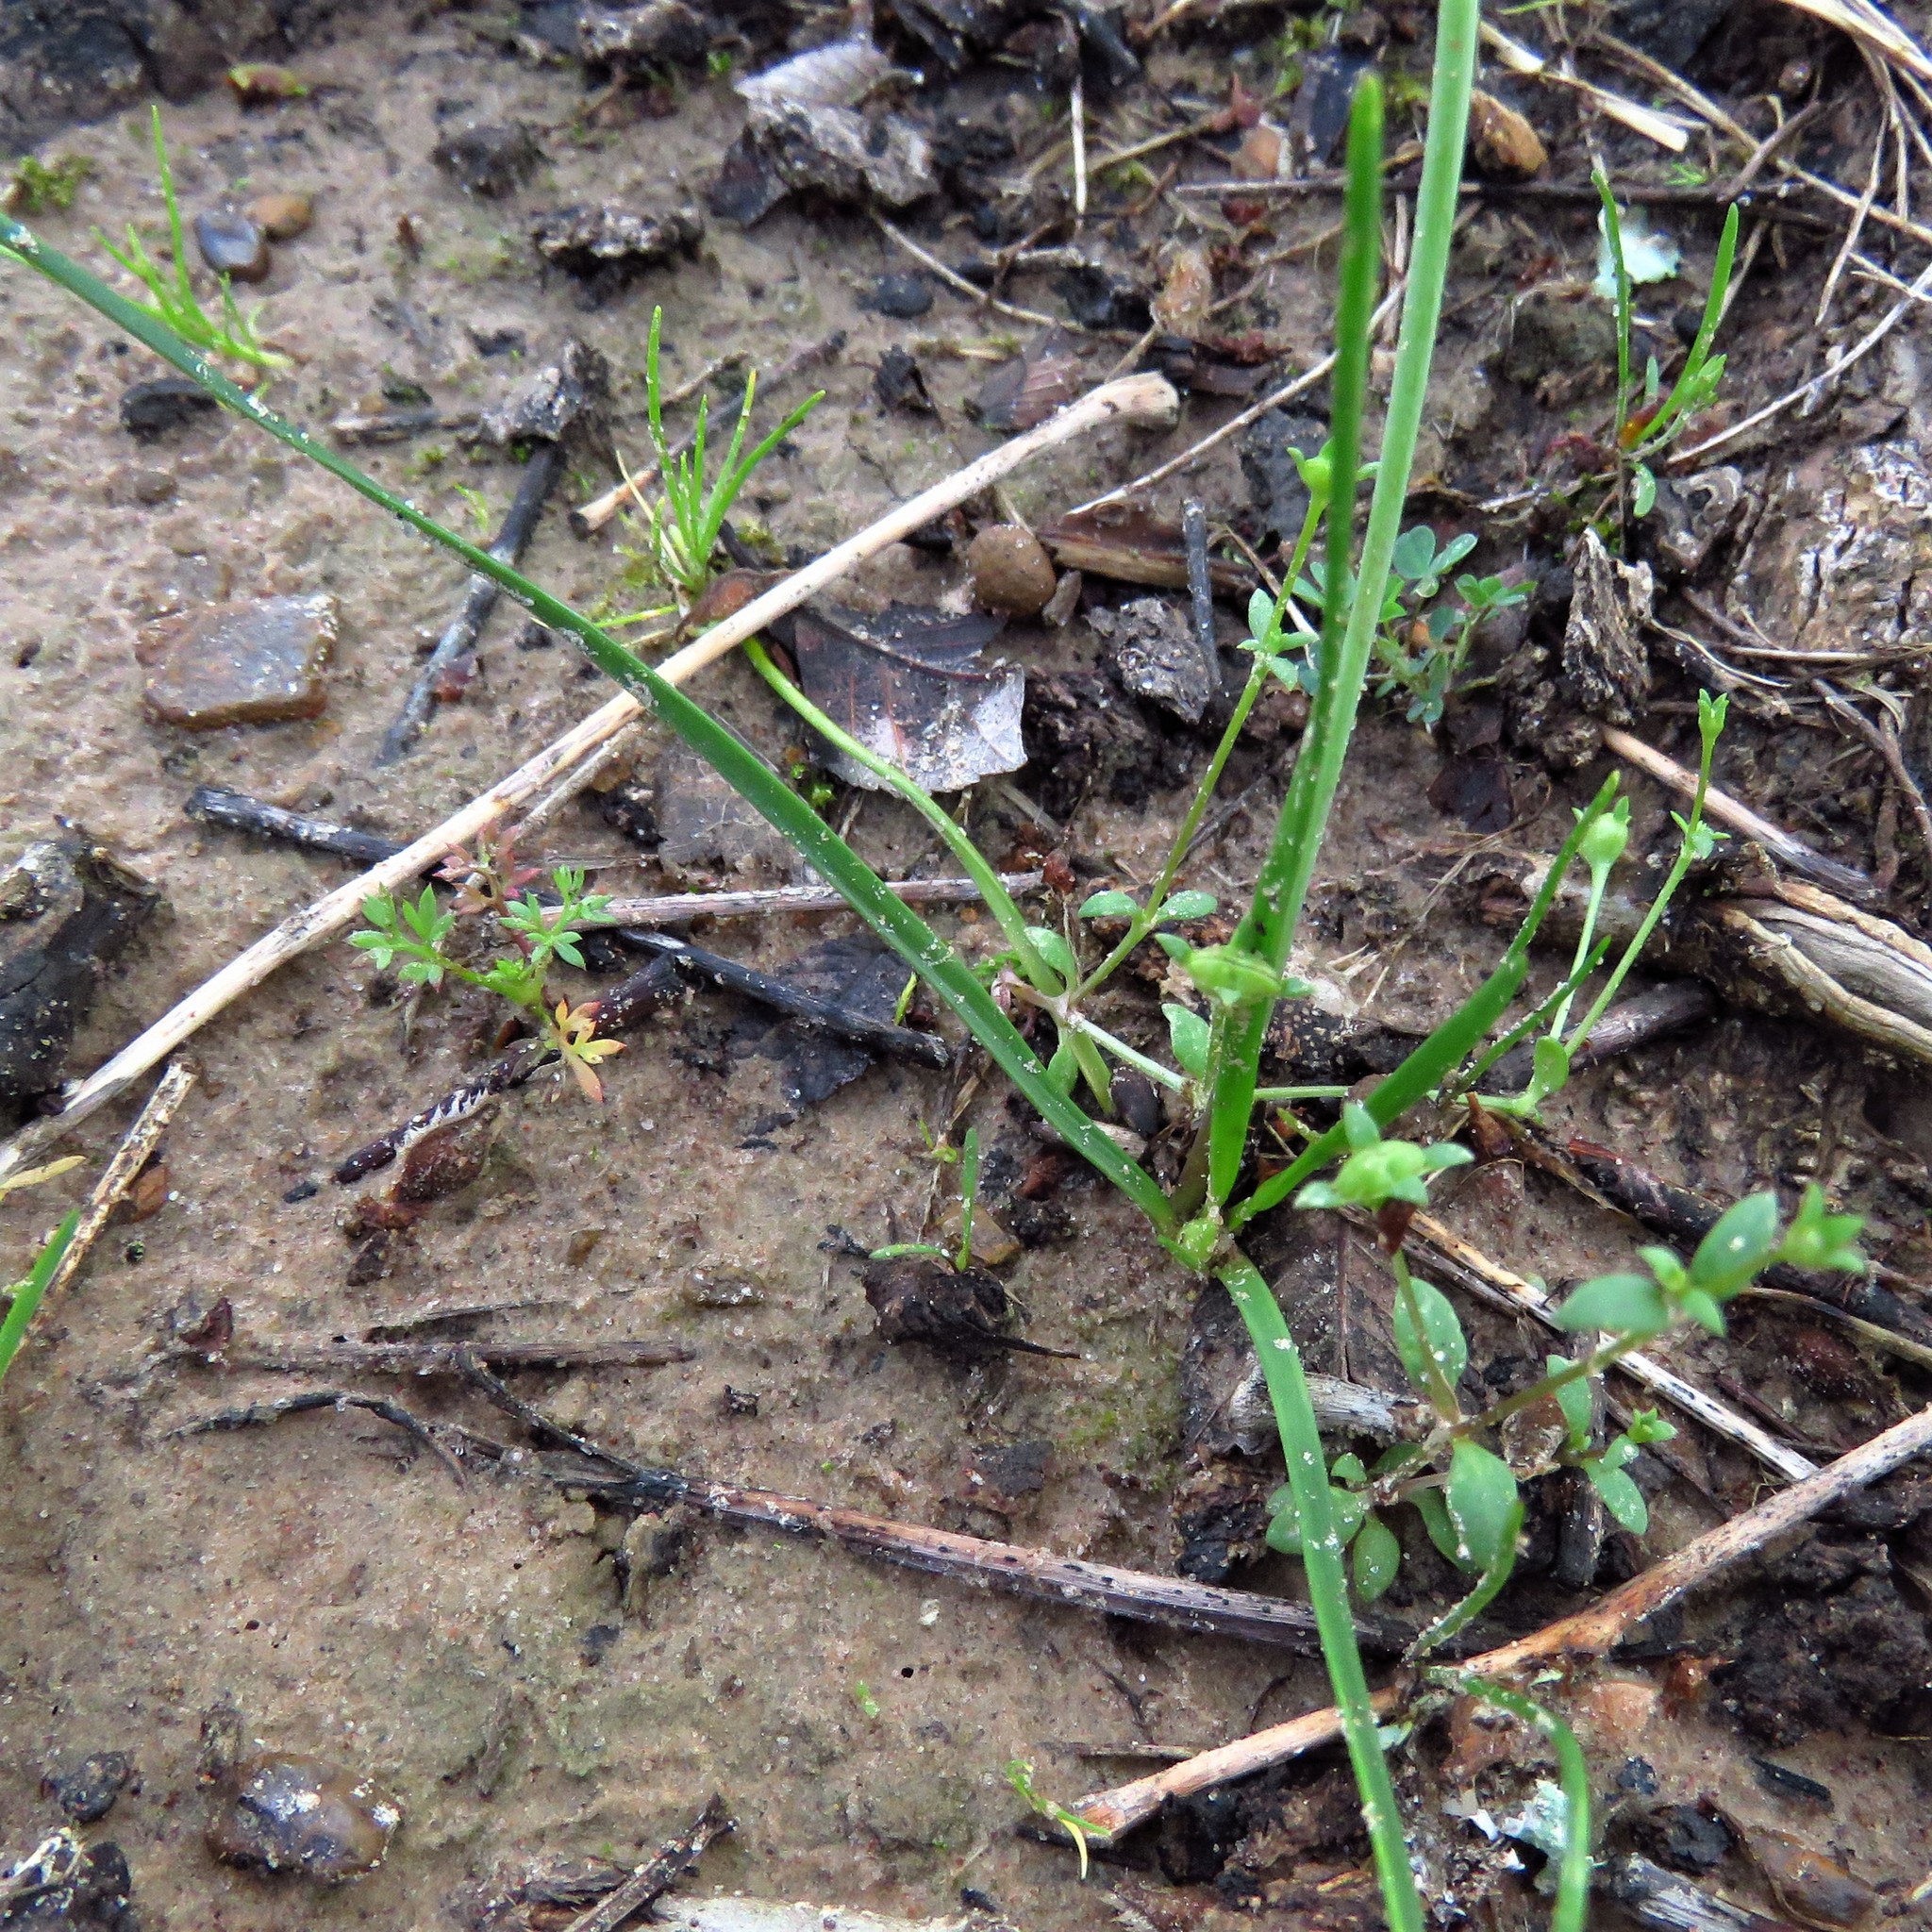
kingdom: Plantae
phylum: Tracheophyta
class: Liliopsida
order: Asparagales
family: Amaryllidaceae
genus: Nothoscordum
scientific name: Nothoscordum bivalve
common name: Crow-poison
